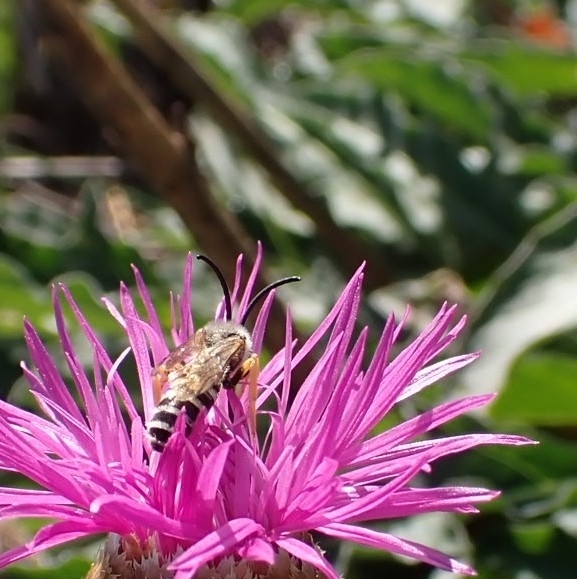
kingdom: Animalia
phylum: Arthropoda
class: Insecta
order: Hymenoptera
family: Halictidae
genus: Halictus
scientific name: Halictus scabiosae
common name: Great banded furrow bee
